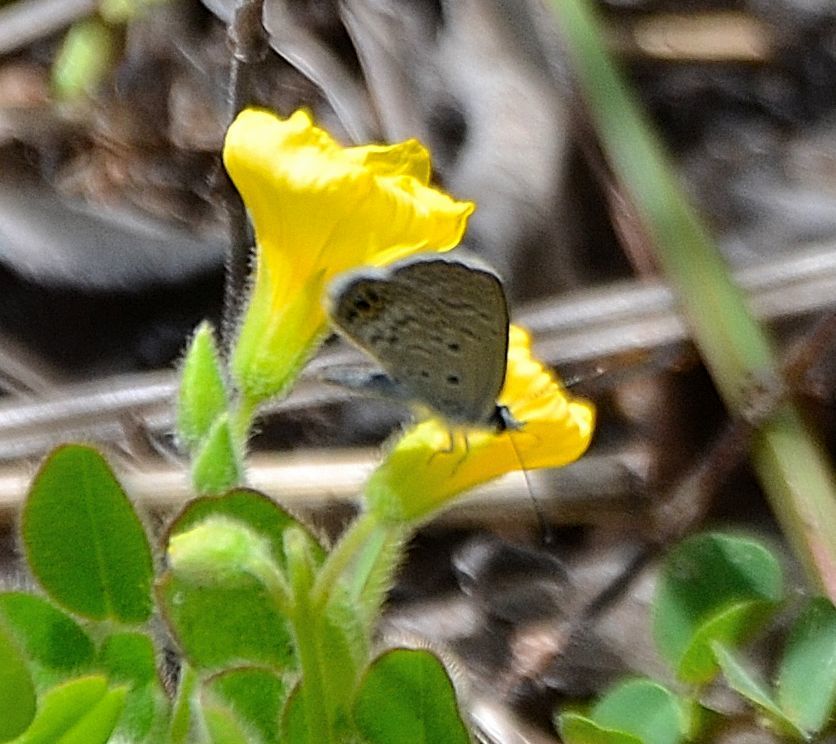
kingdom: Animalia
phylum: Arthropoda
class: Insecta
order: Lepidoptera
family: Lycaenidae
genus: Hemiargus
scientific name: Hemiargus ceraunus
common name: Ceraunus blue
